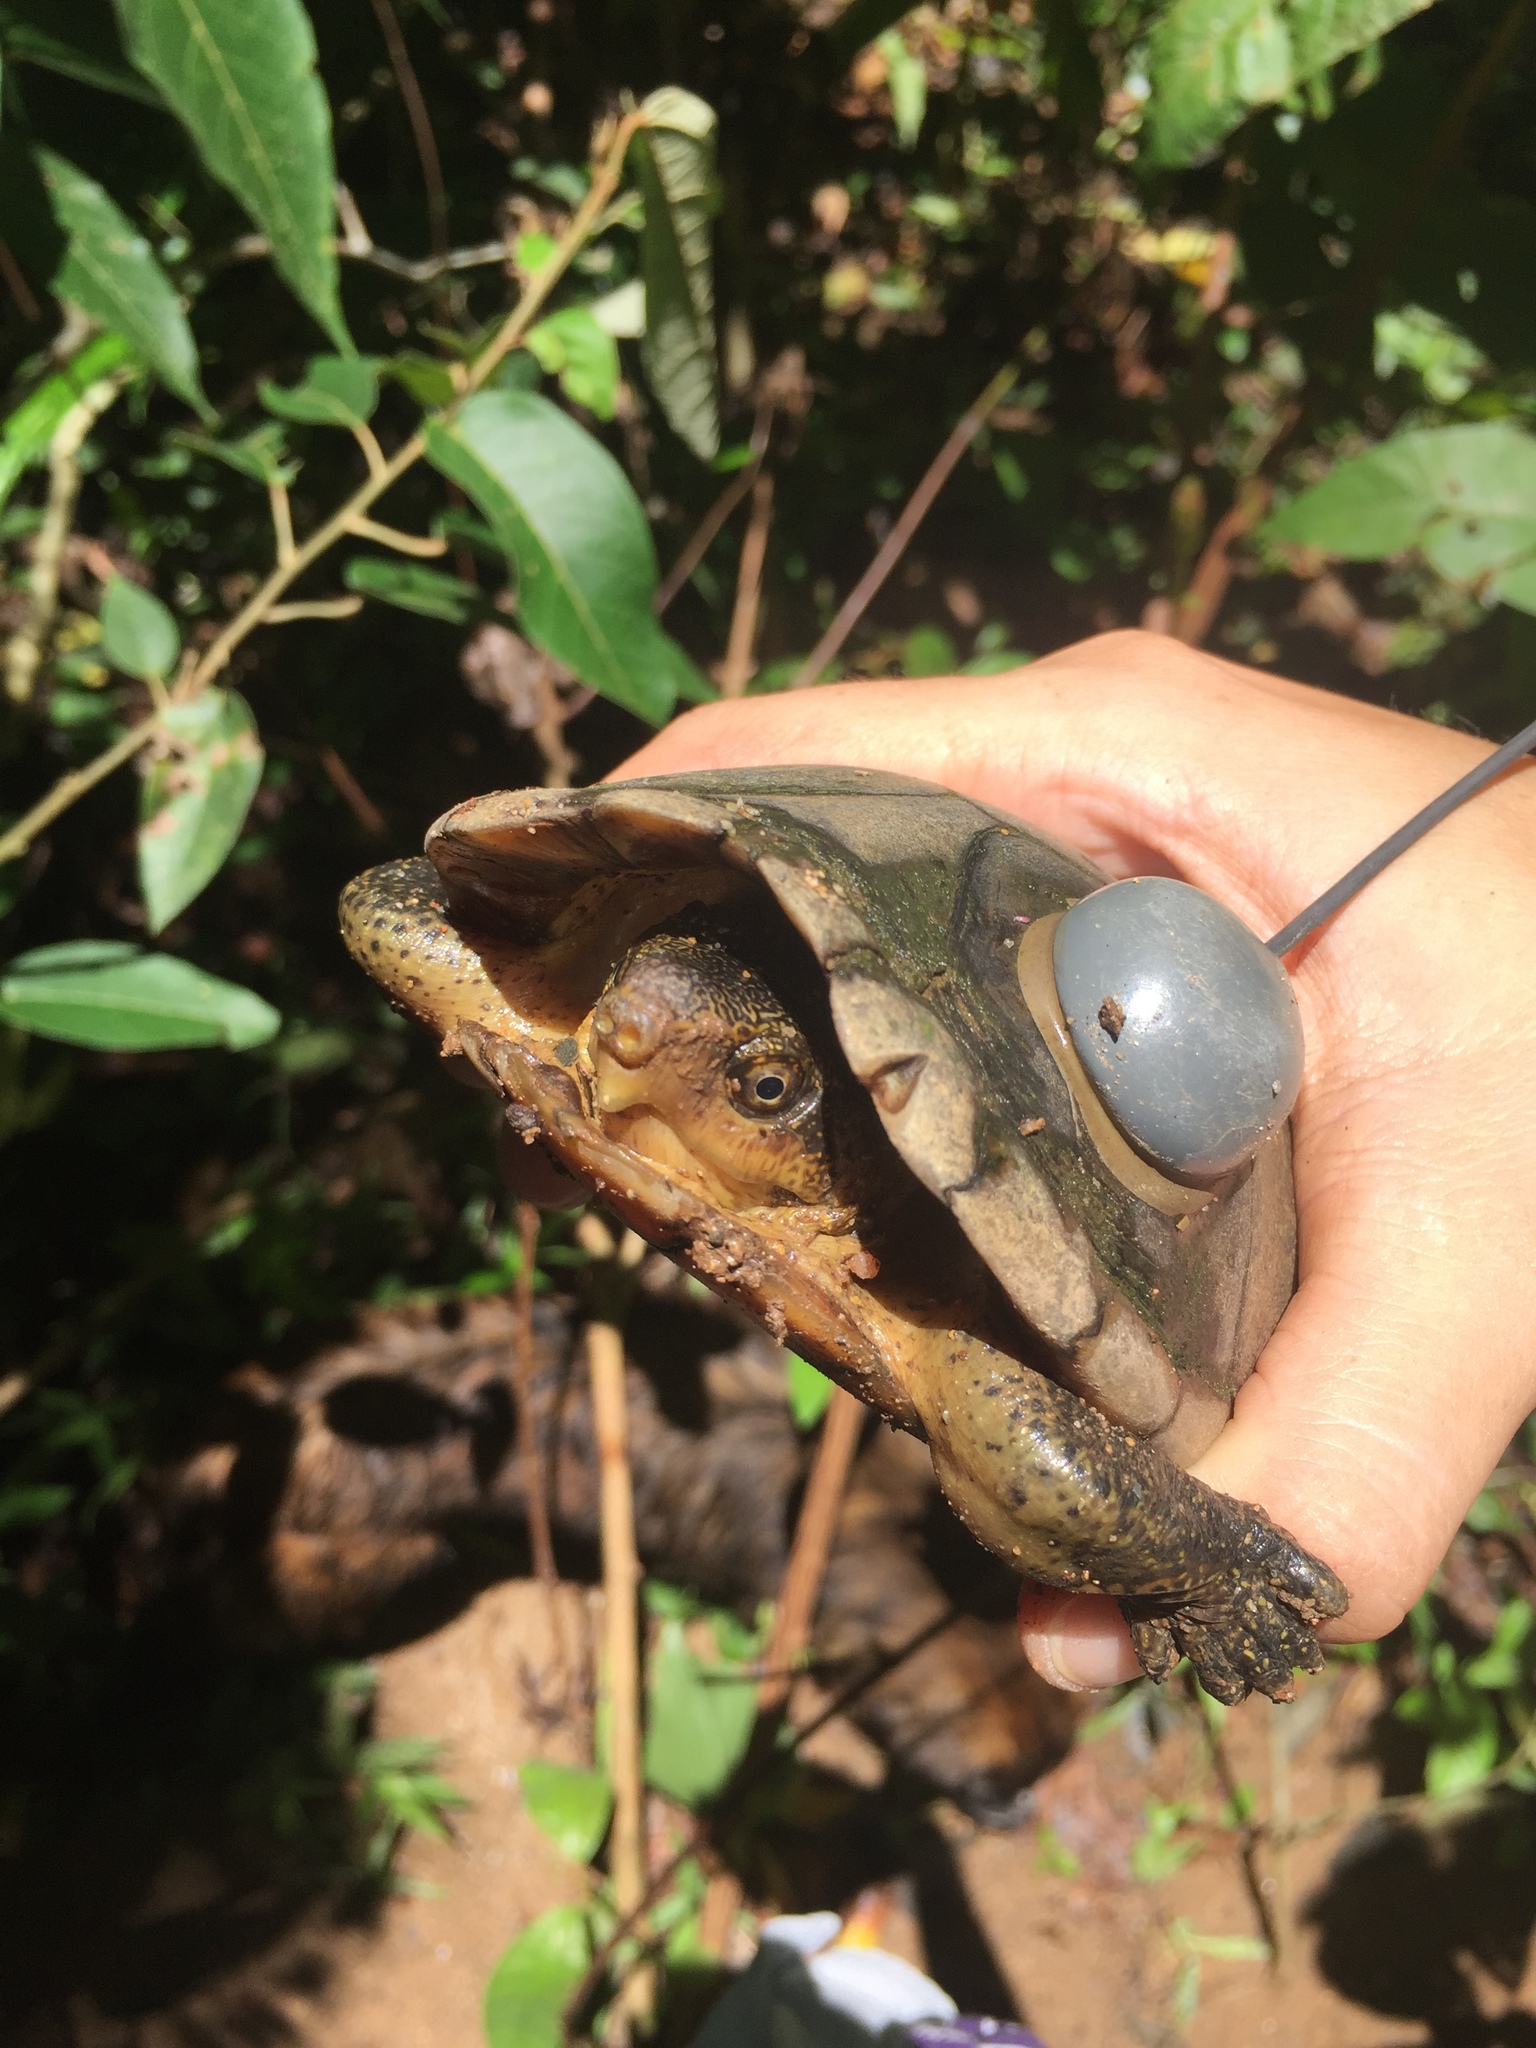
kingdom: Animalia
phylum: Chordata
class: Testudines
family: Kinosternidae
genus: Kinosternon
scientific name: Kinosternon leucostomum
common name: White-lipped mud turtle
